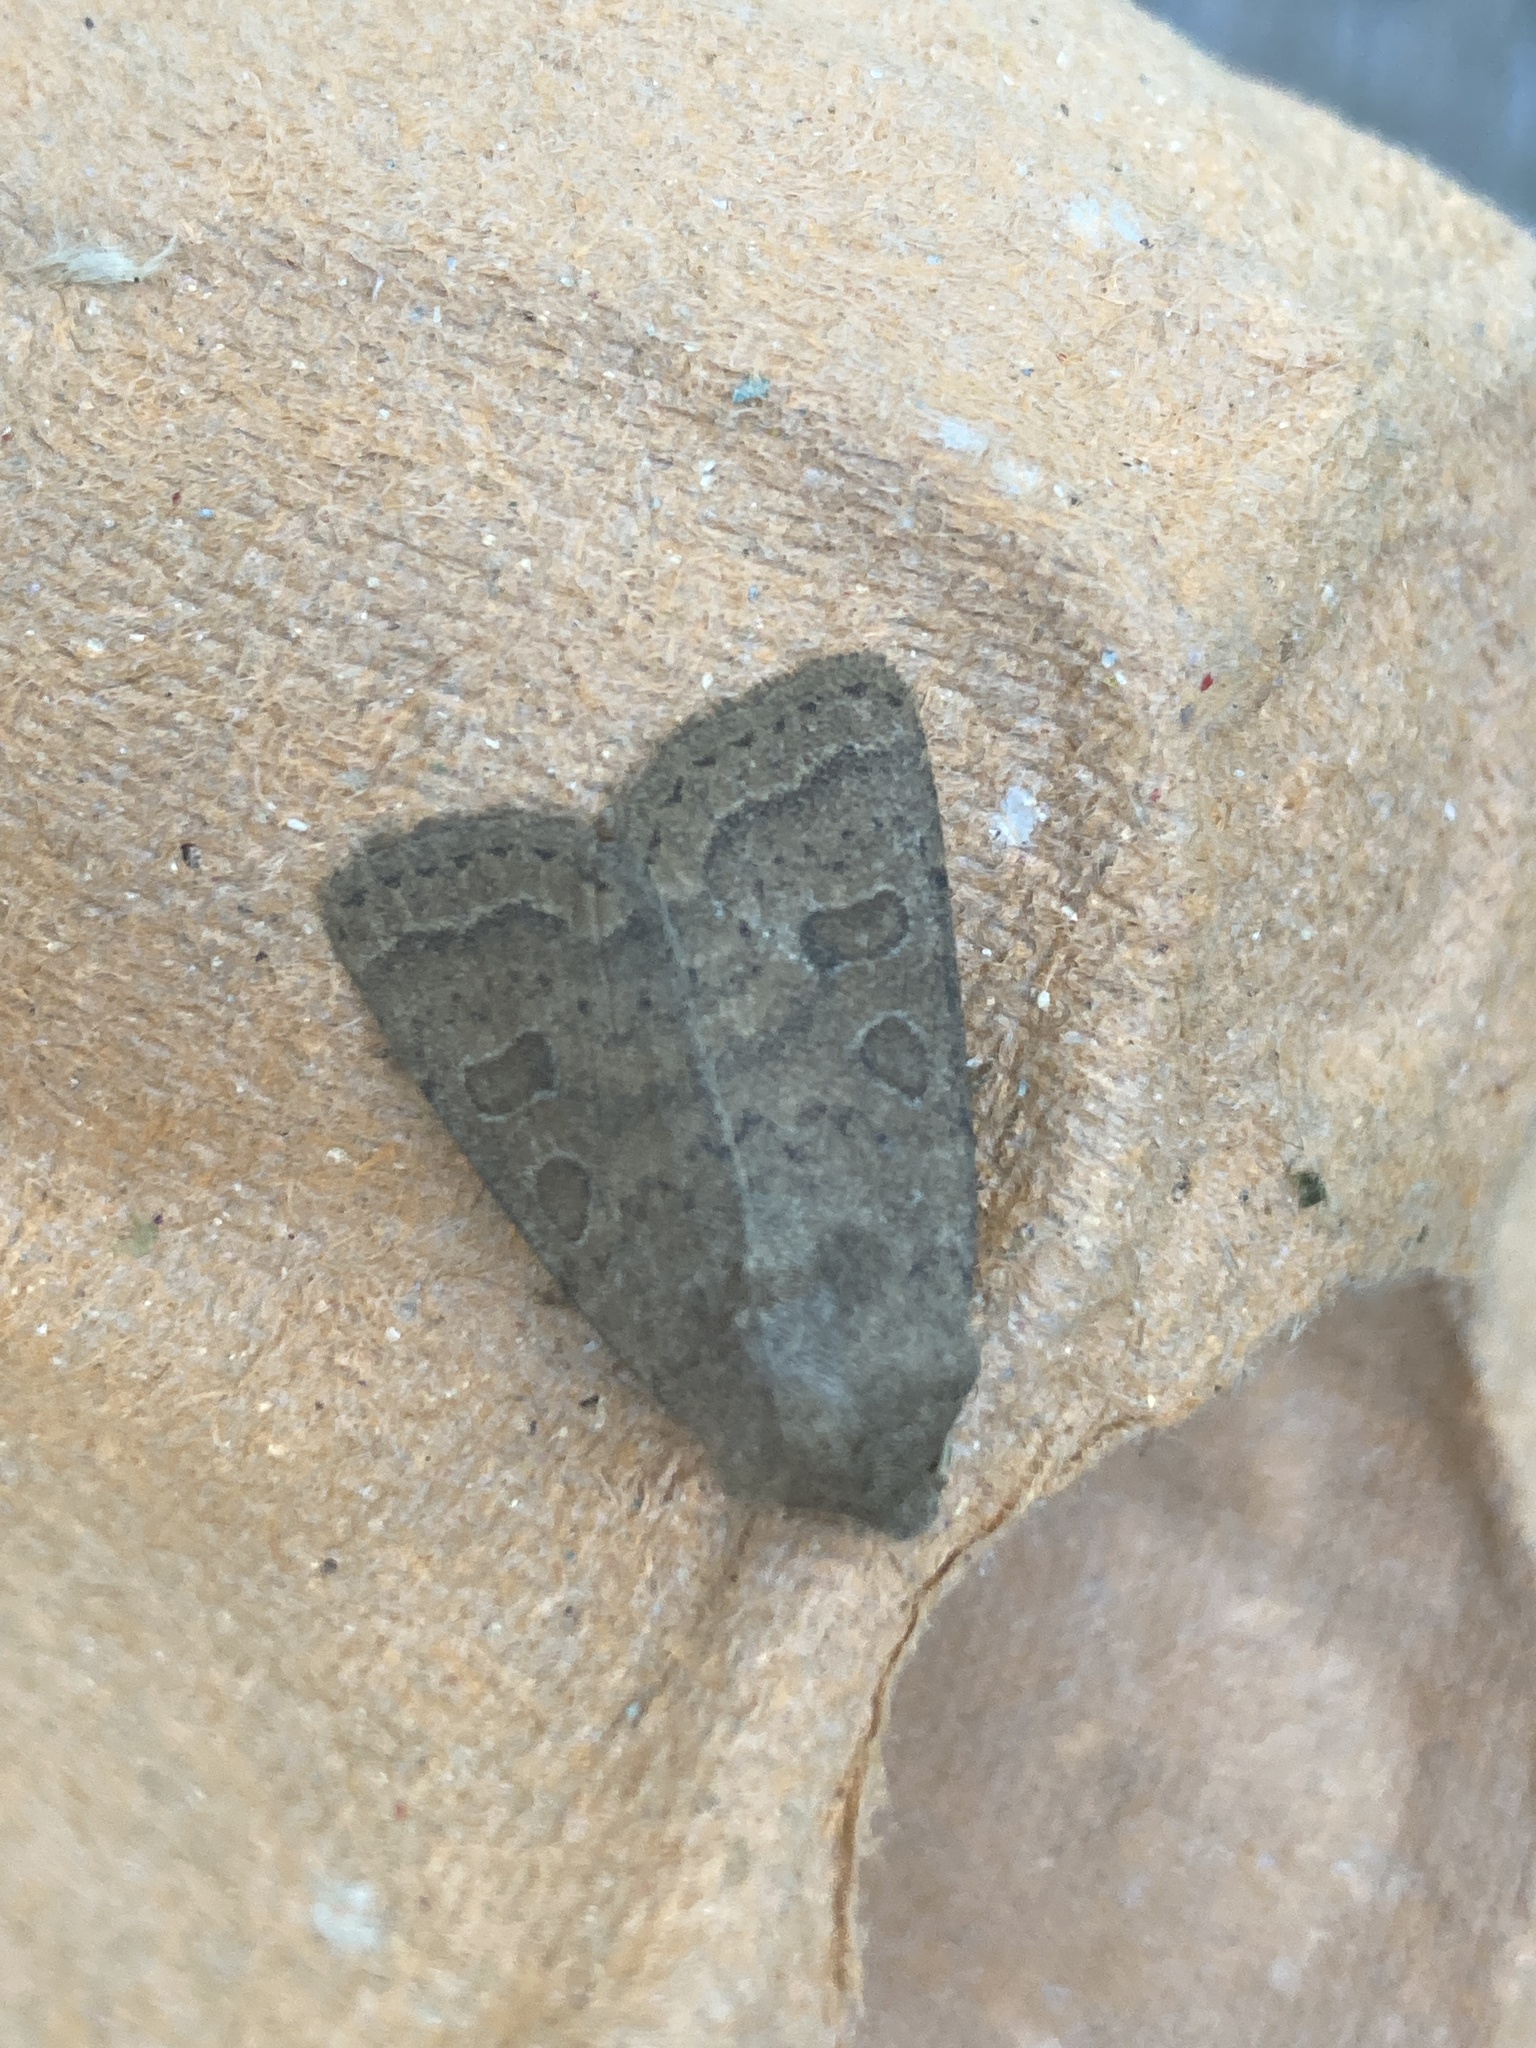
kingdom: Animalia
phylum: Arthropoda
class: Insecta
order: Lepidoptera
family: Noctuidae
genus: Hoplodrina
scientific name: Hoplodrina blanda
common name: Rustic
